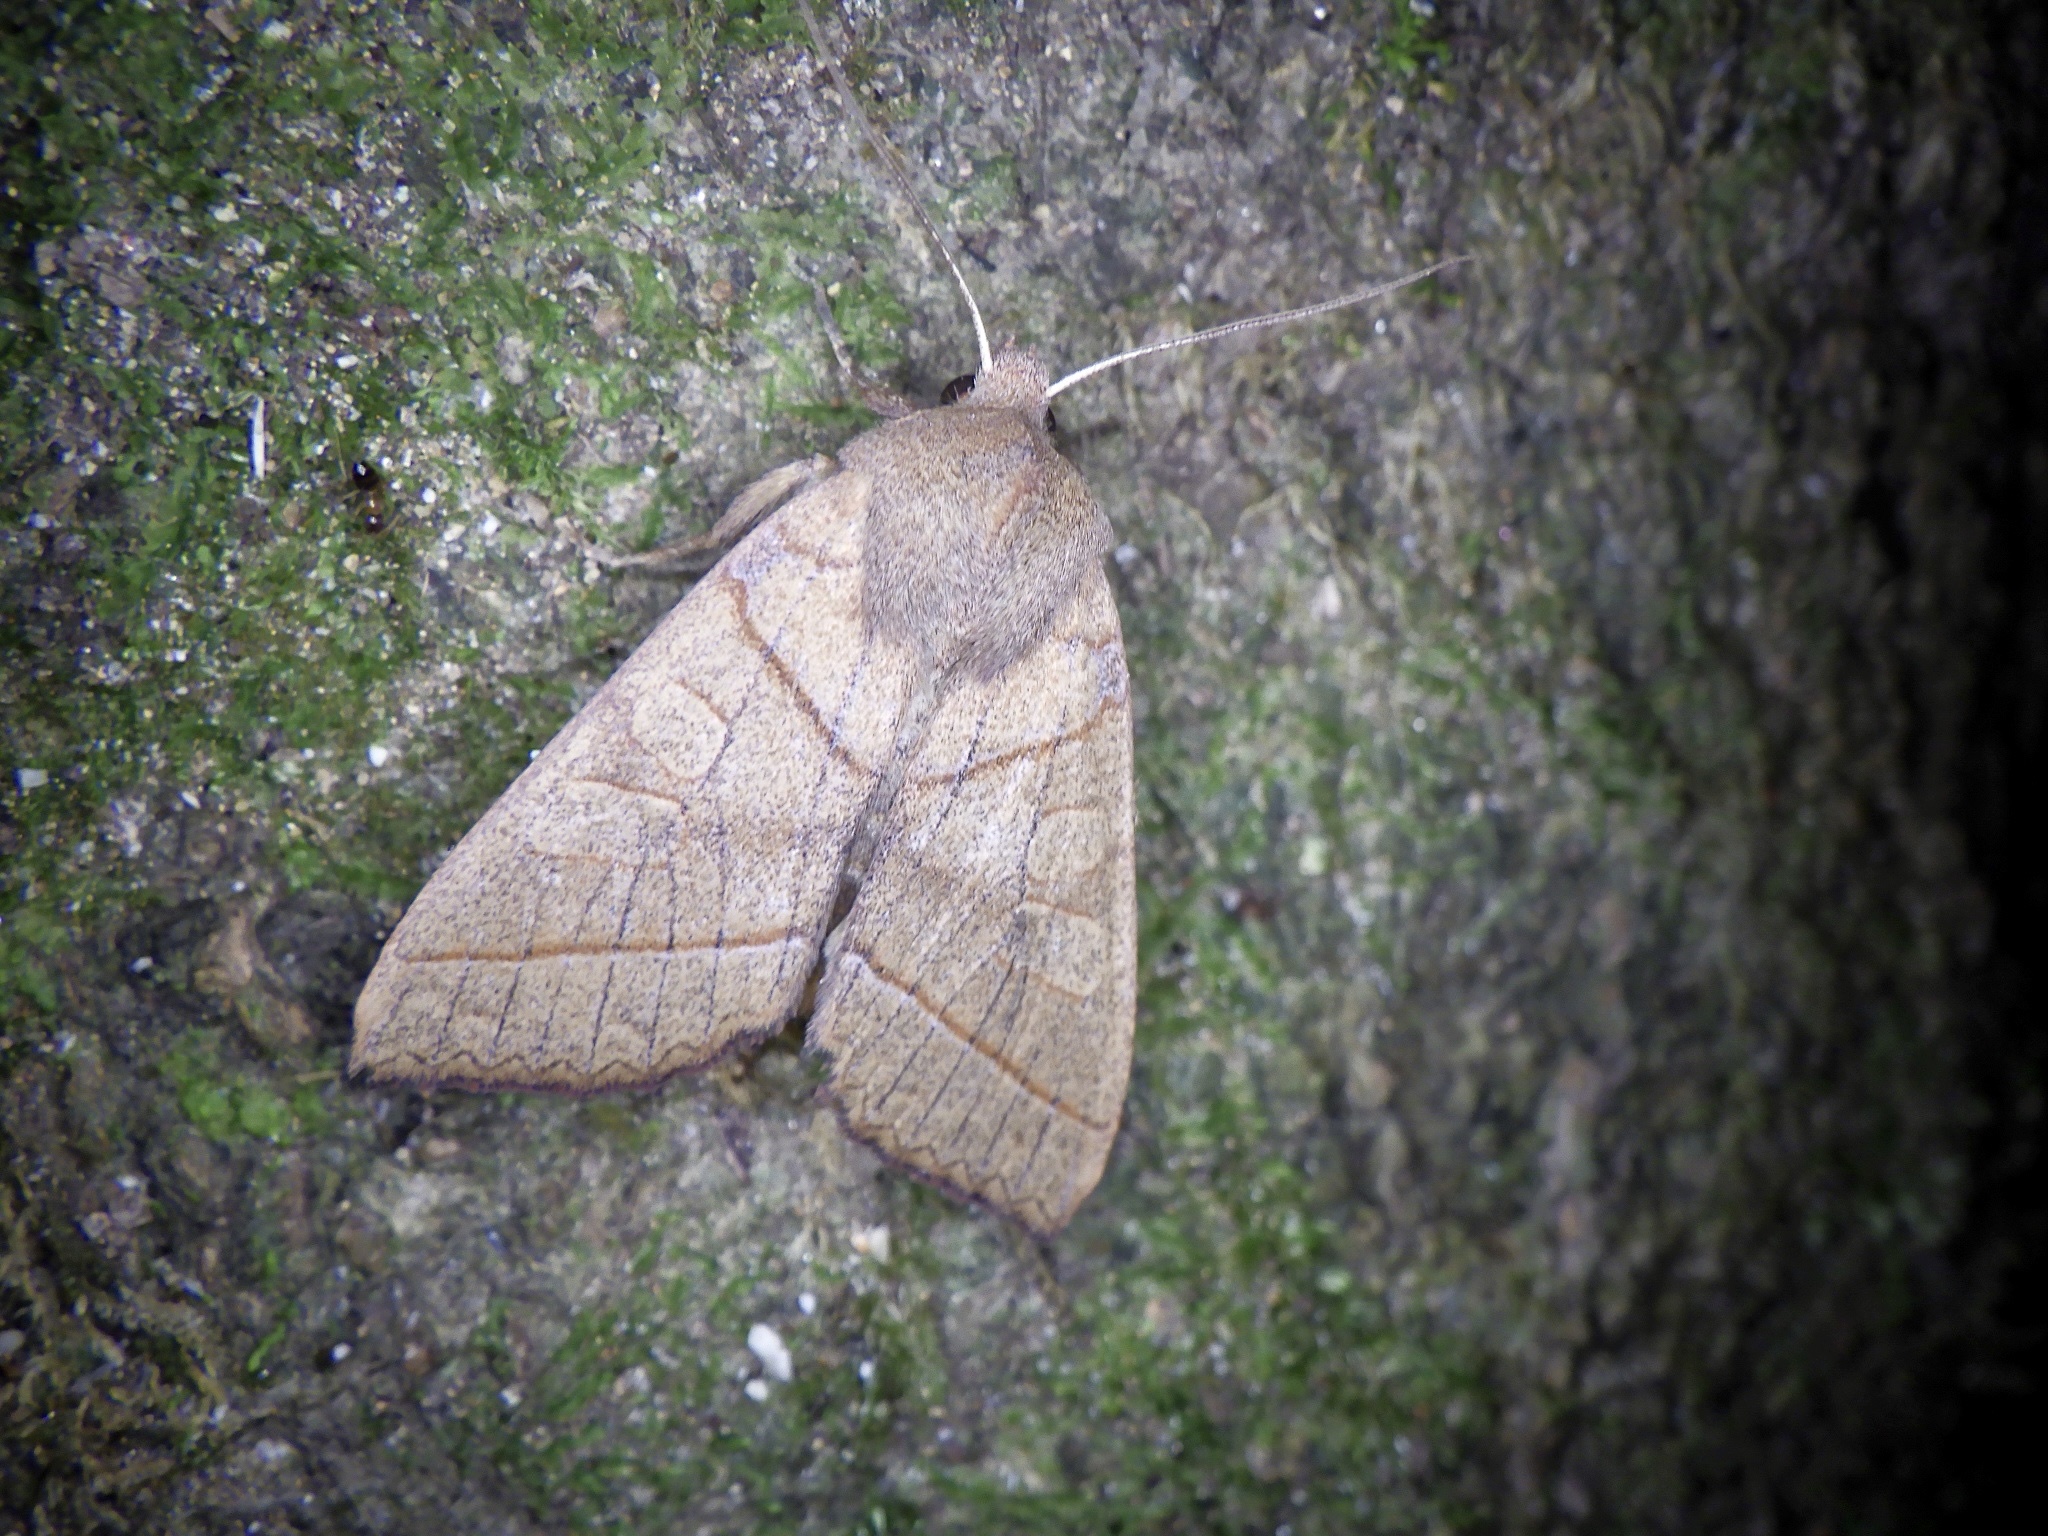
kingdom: Animalia
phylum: Arthropoda
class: Insecta
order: Lepidoptera
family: Noctuidae
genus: Telorta
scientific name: Telorta divergens
